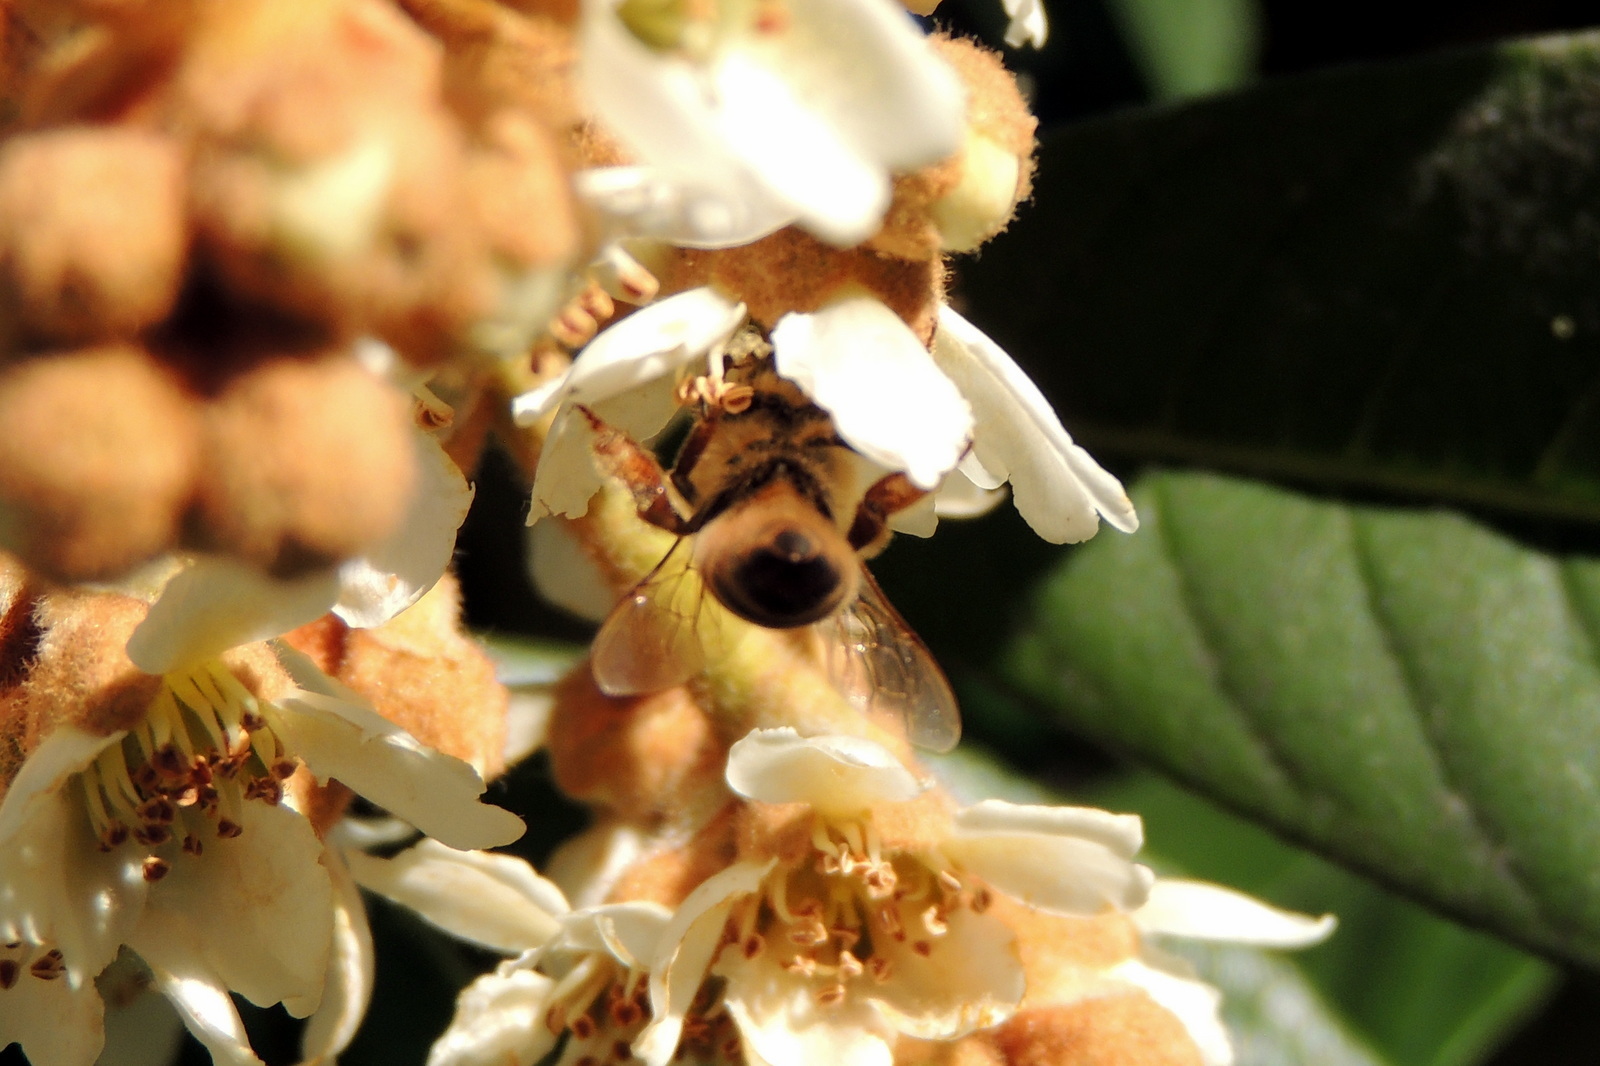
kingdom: Animalia
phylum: Arthropoda
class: Insecta
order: Hymenoptera
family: Apidae
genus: Apis
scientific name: Apis mellifera
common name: Honey bee
